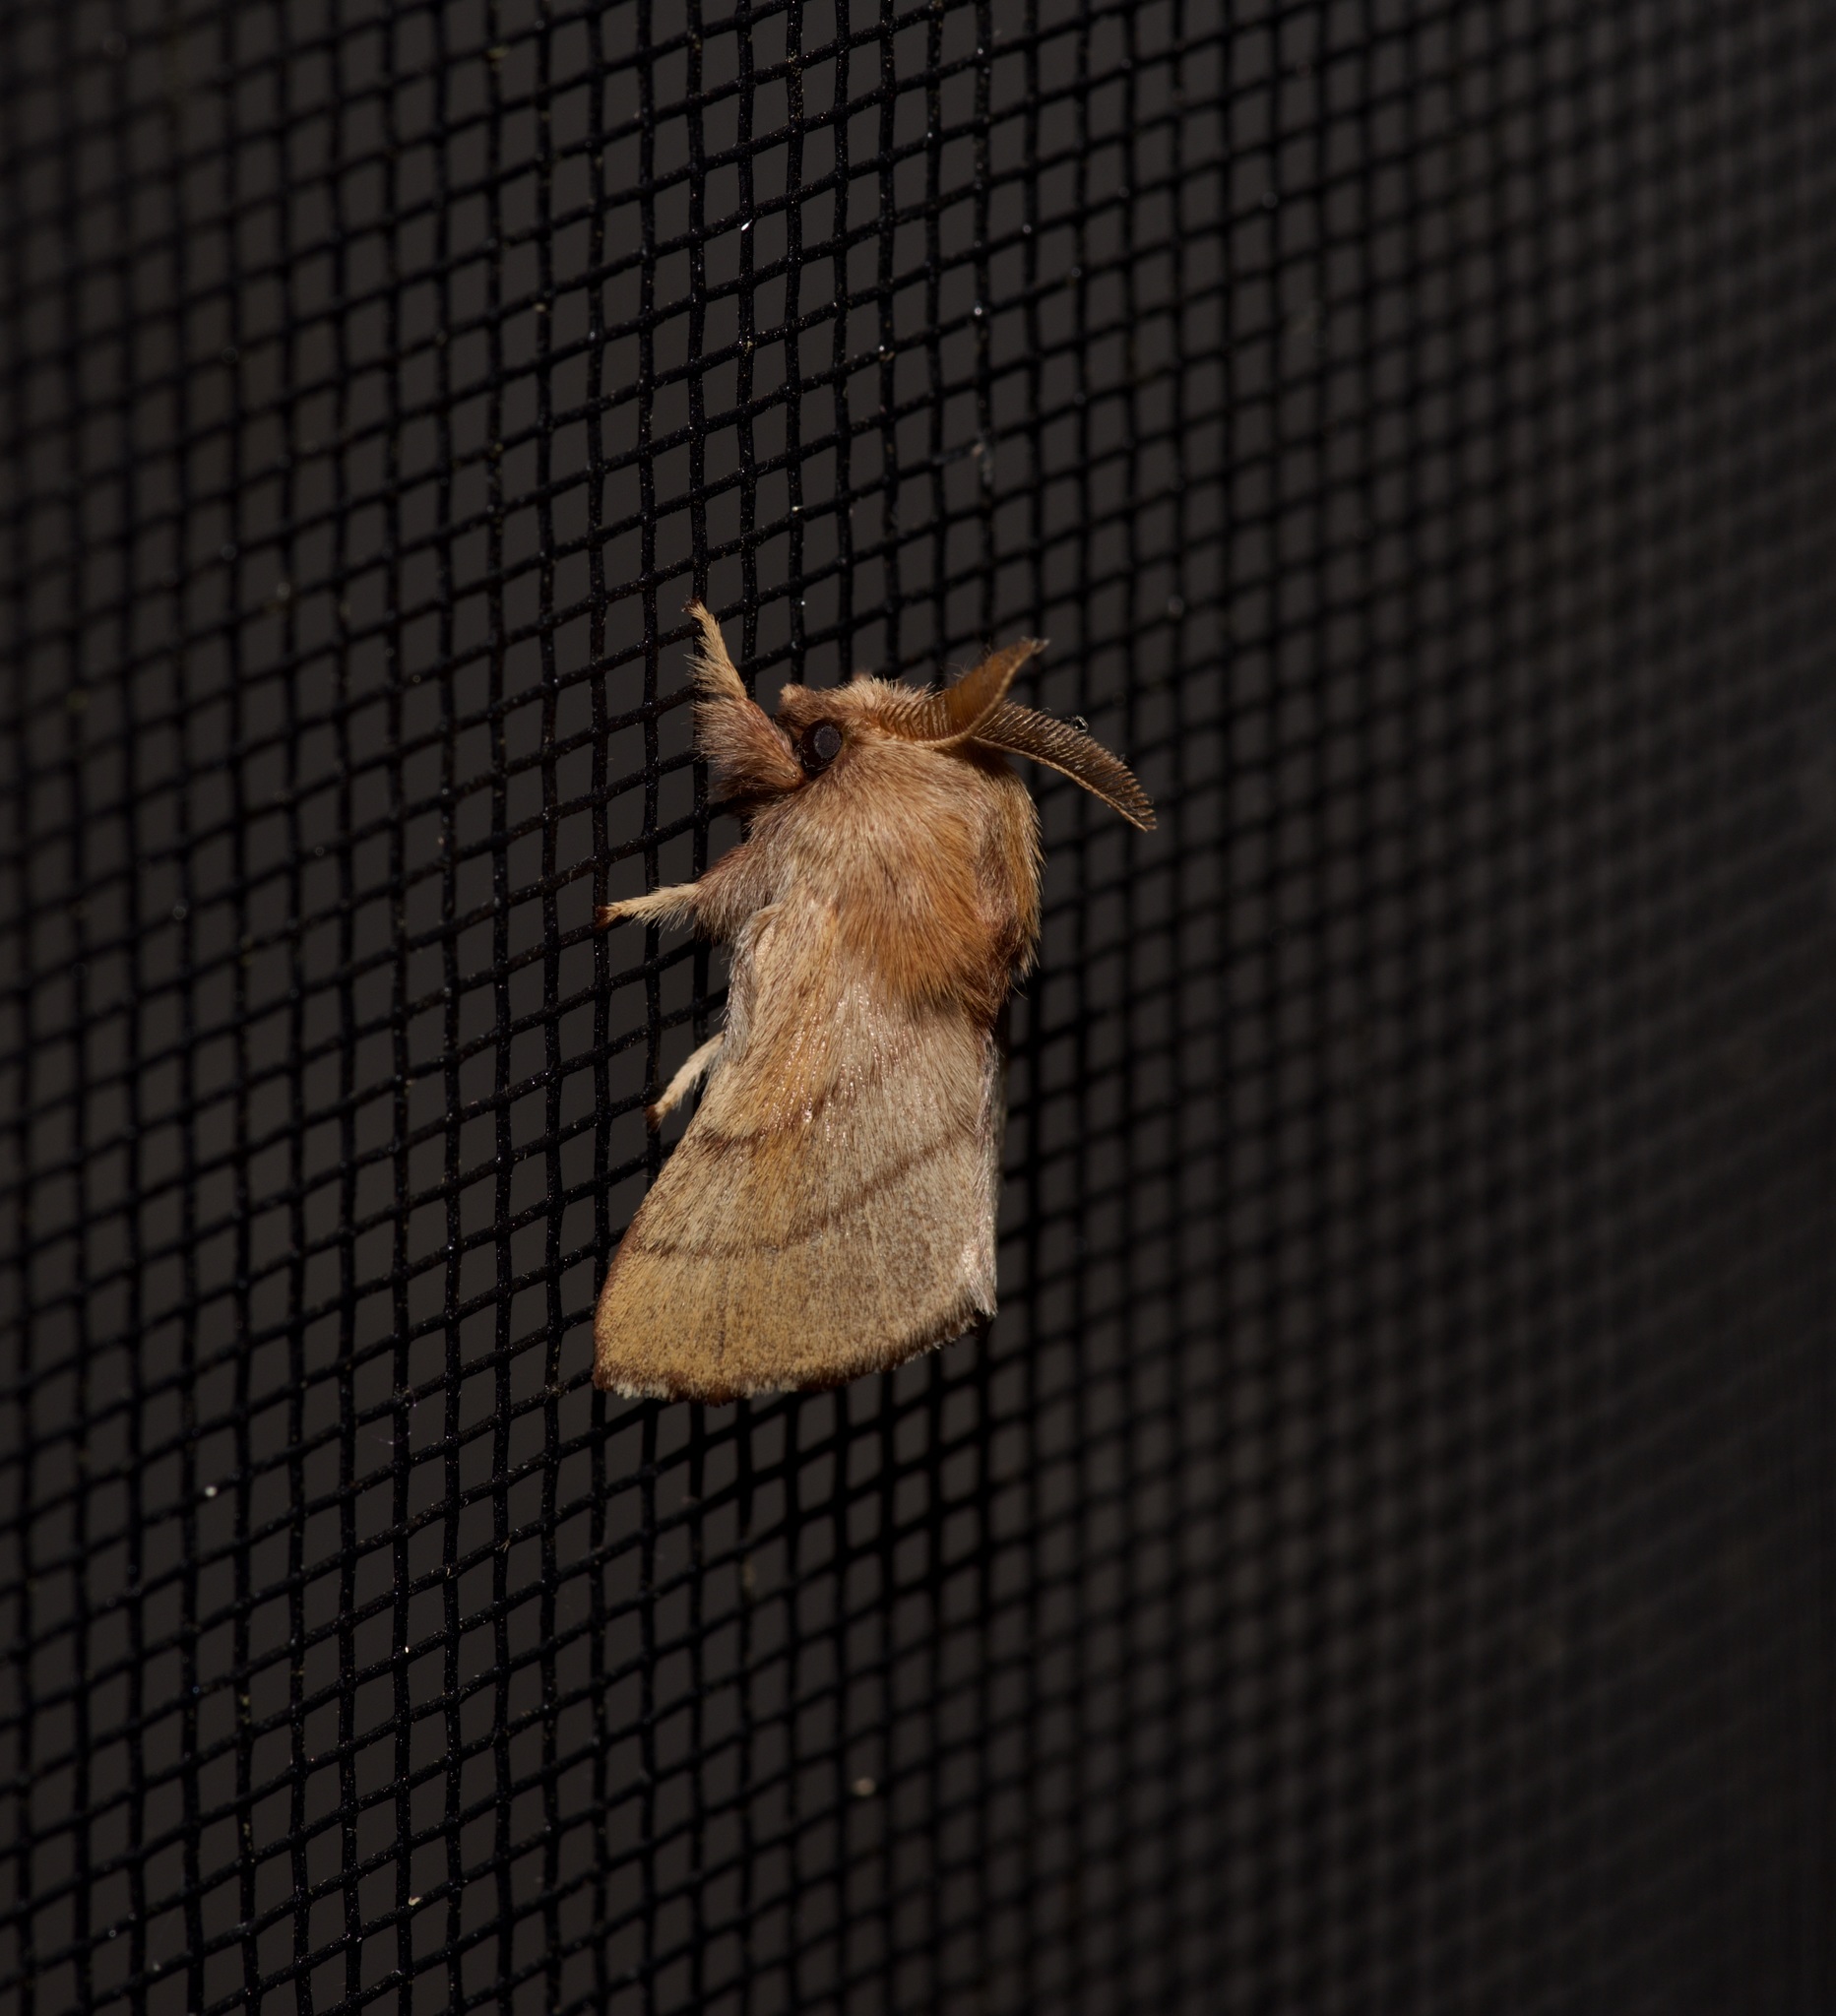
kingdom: Animalia
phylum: Arthropoda
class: Insecta
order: Lepidoptera
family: Lasiocampidae
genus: Malacosoma
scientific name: Malacosoma disstria
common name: Forest tent caterpillar
